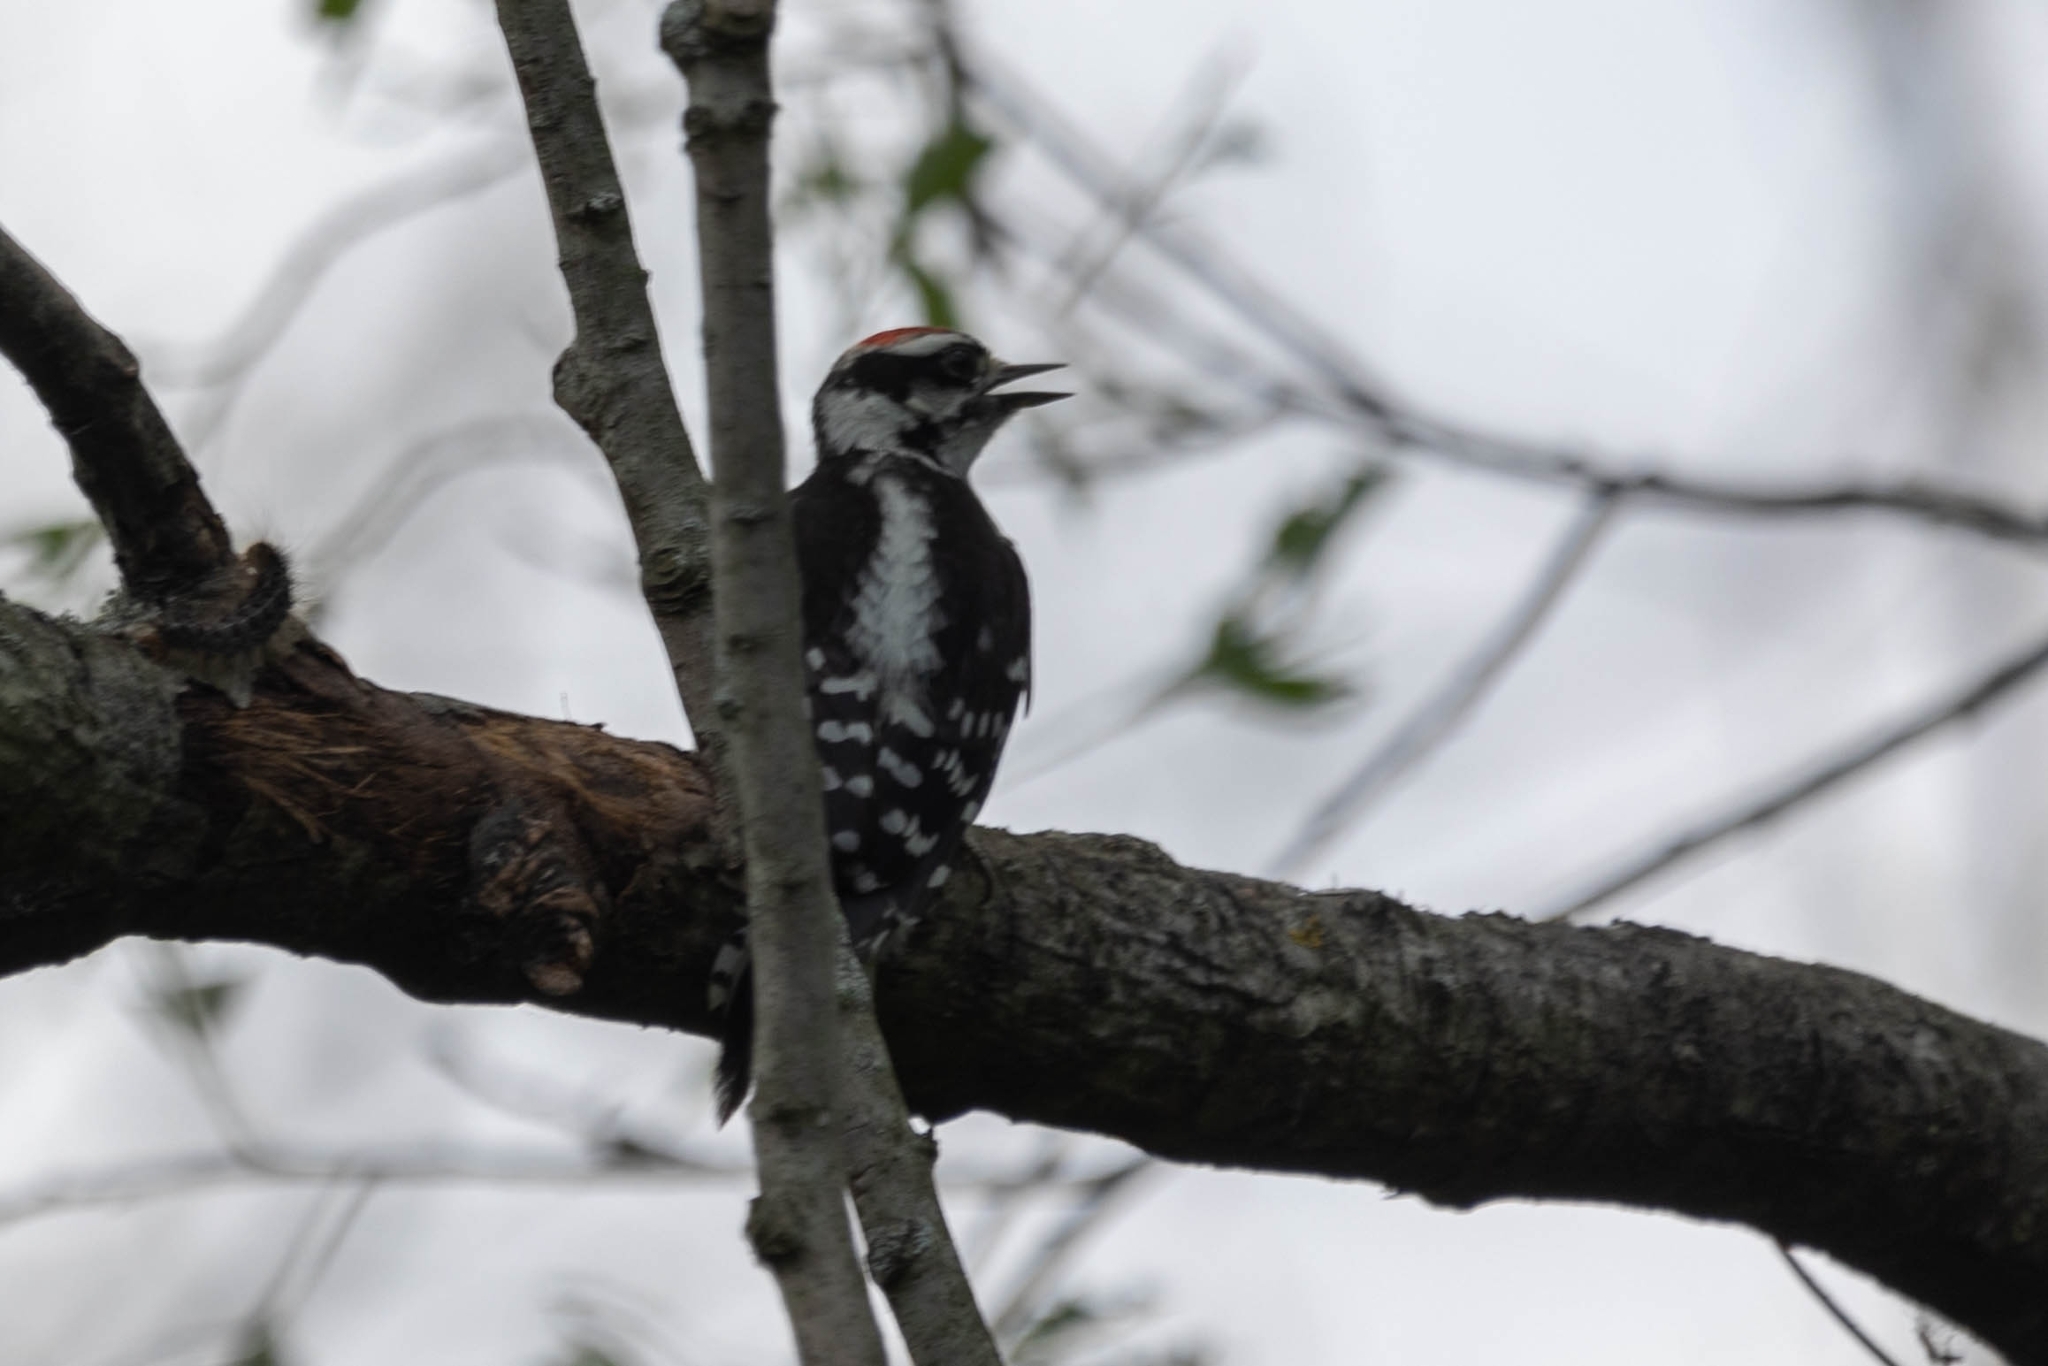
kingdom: Animalia
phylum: Chordata
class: Aves
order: Piciformes
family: Picidae
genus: Dryobates
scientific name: Dryobates pubescens
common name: Downy woodpecker
